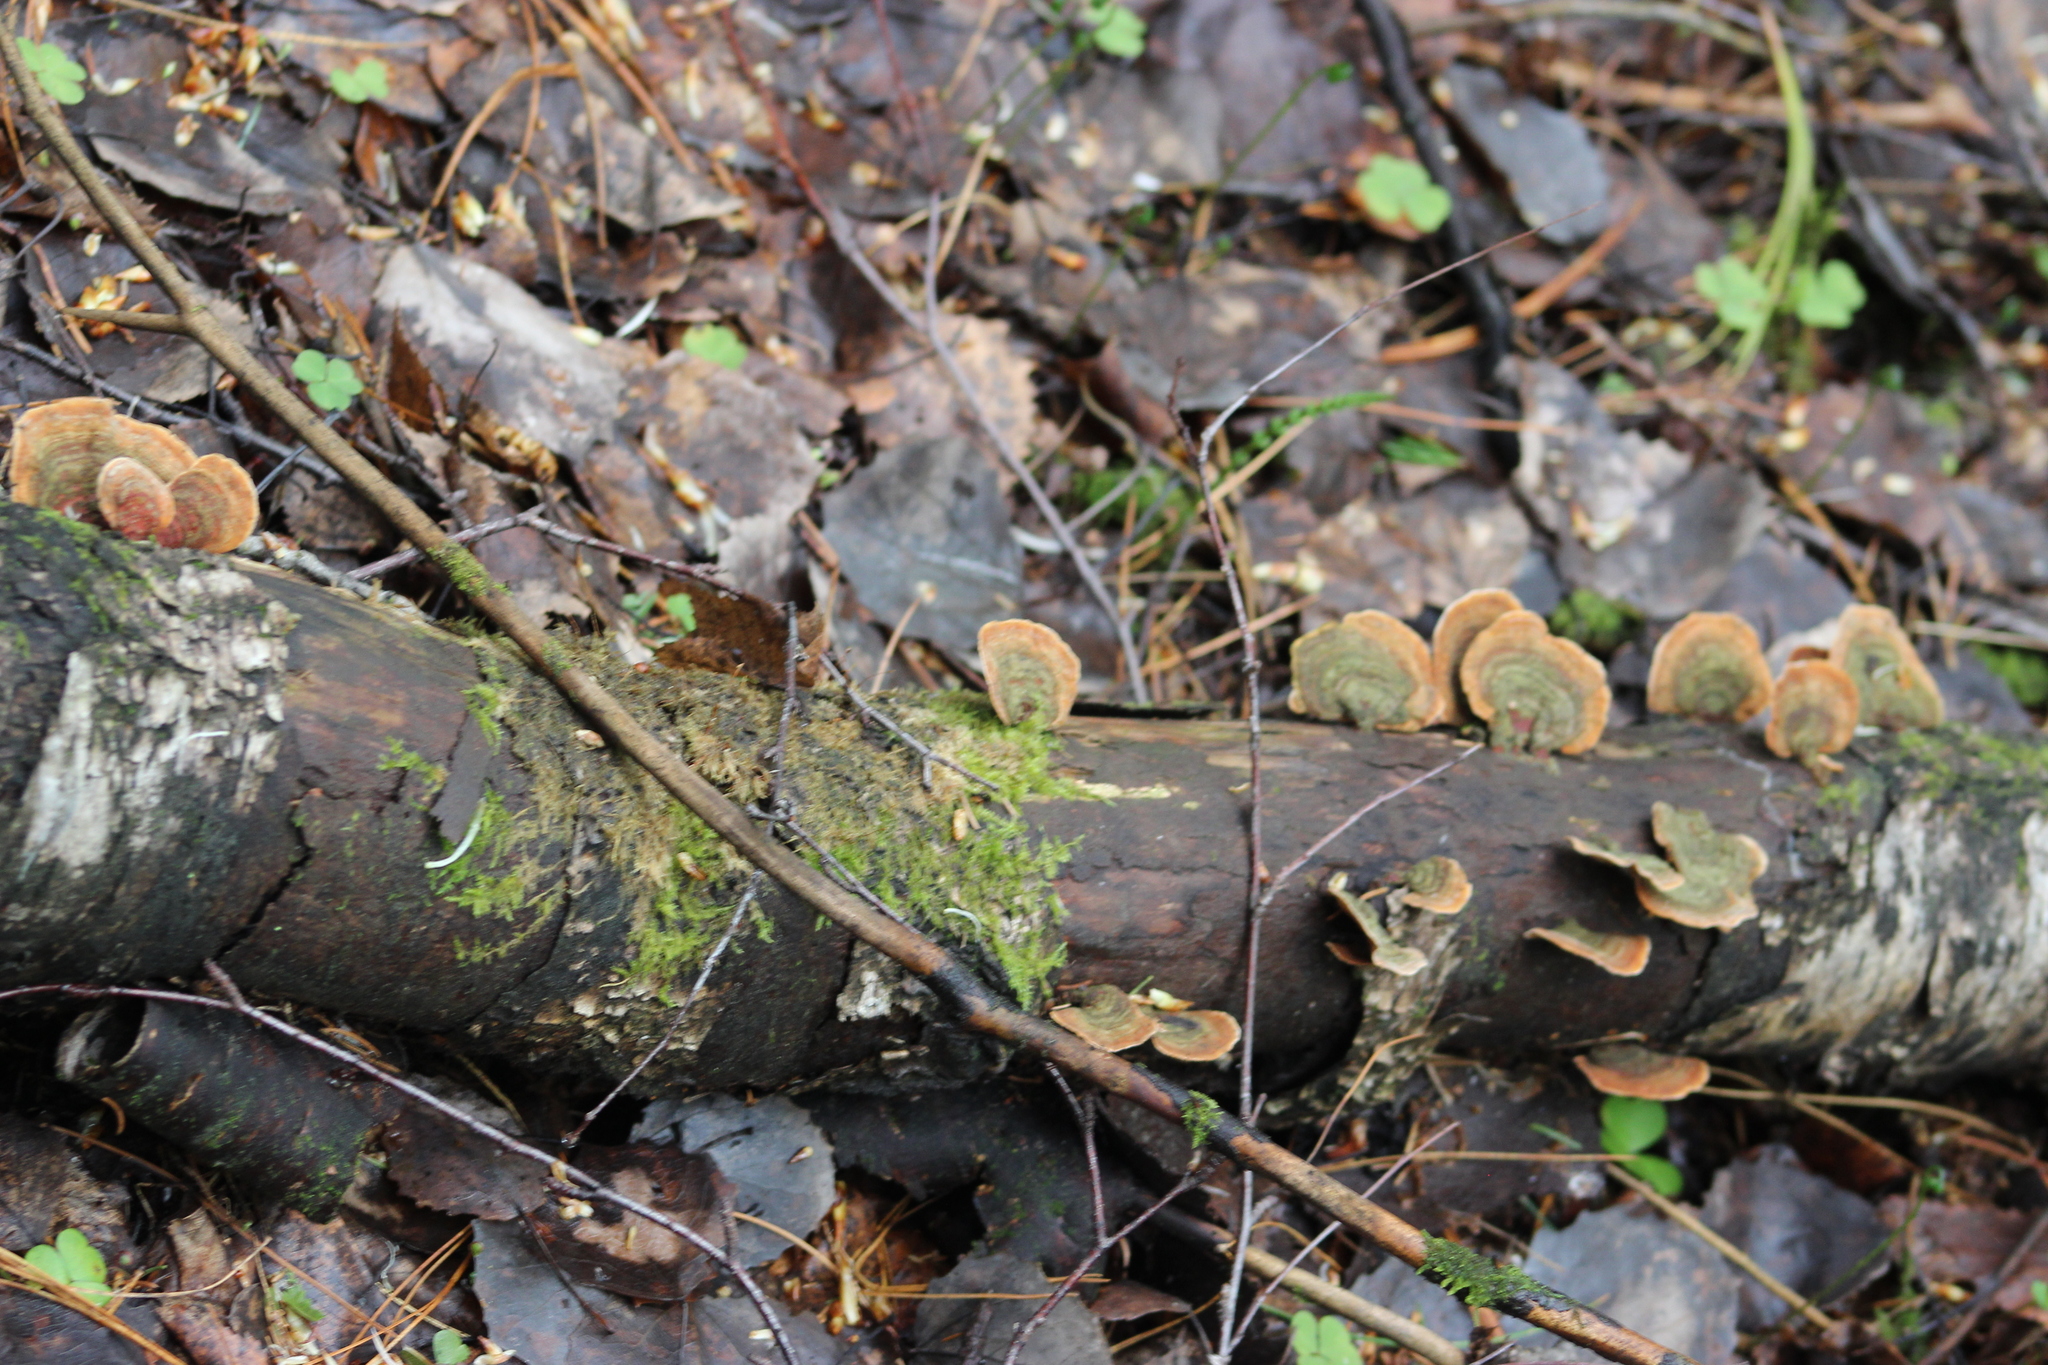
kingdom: Fungi
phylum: Basidiomycota
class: Agaricomycetes
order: Russulales
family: Stereaceae
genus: Stereum
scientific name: Stereum subtomentosum
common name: Yellowing curtain crust
